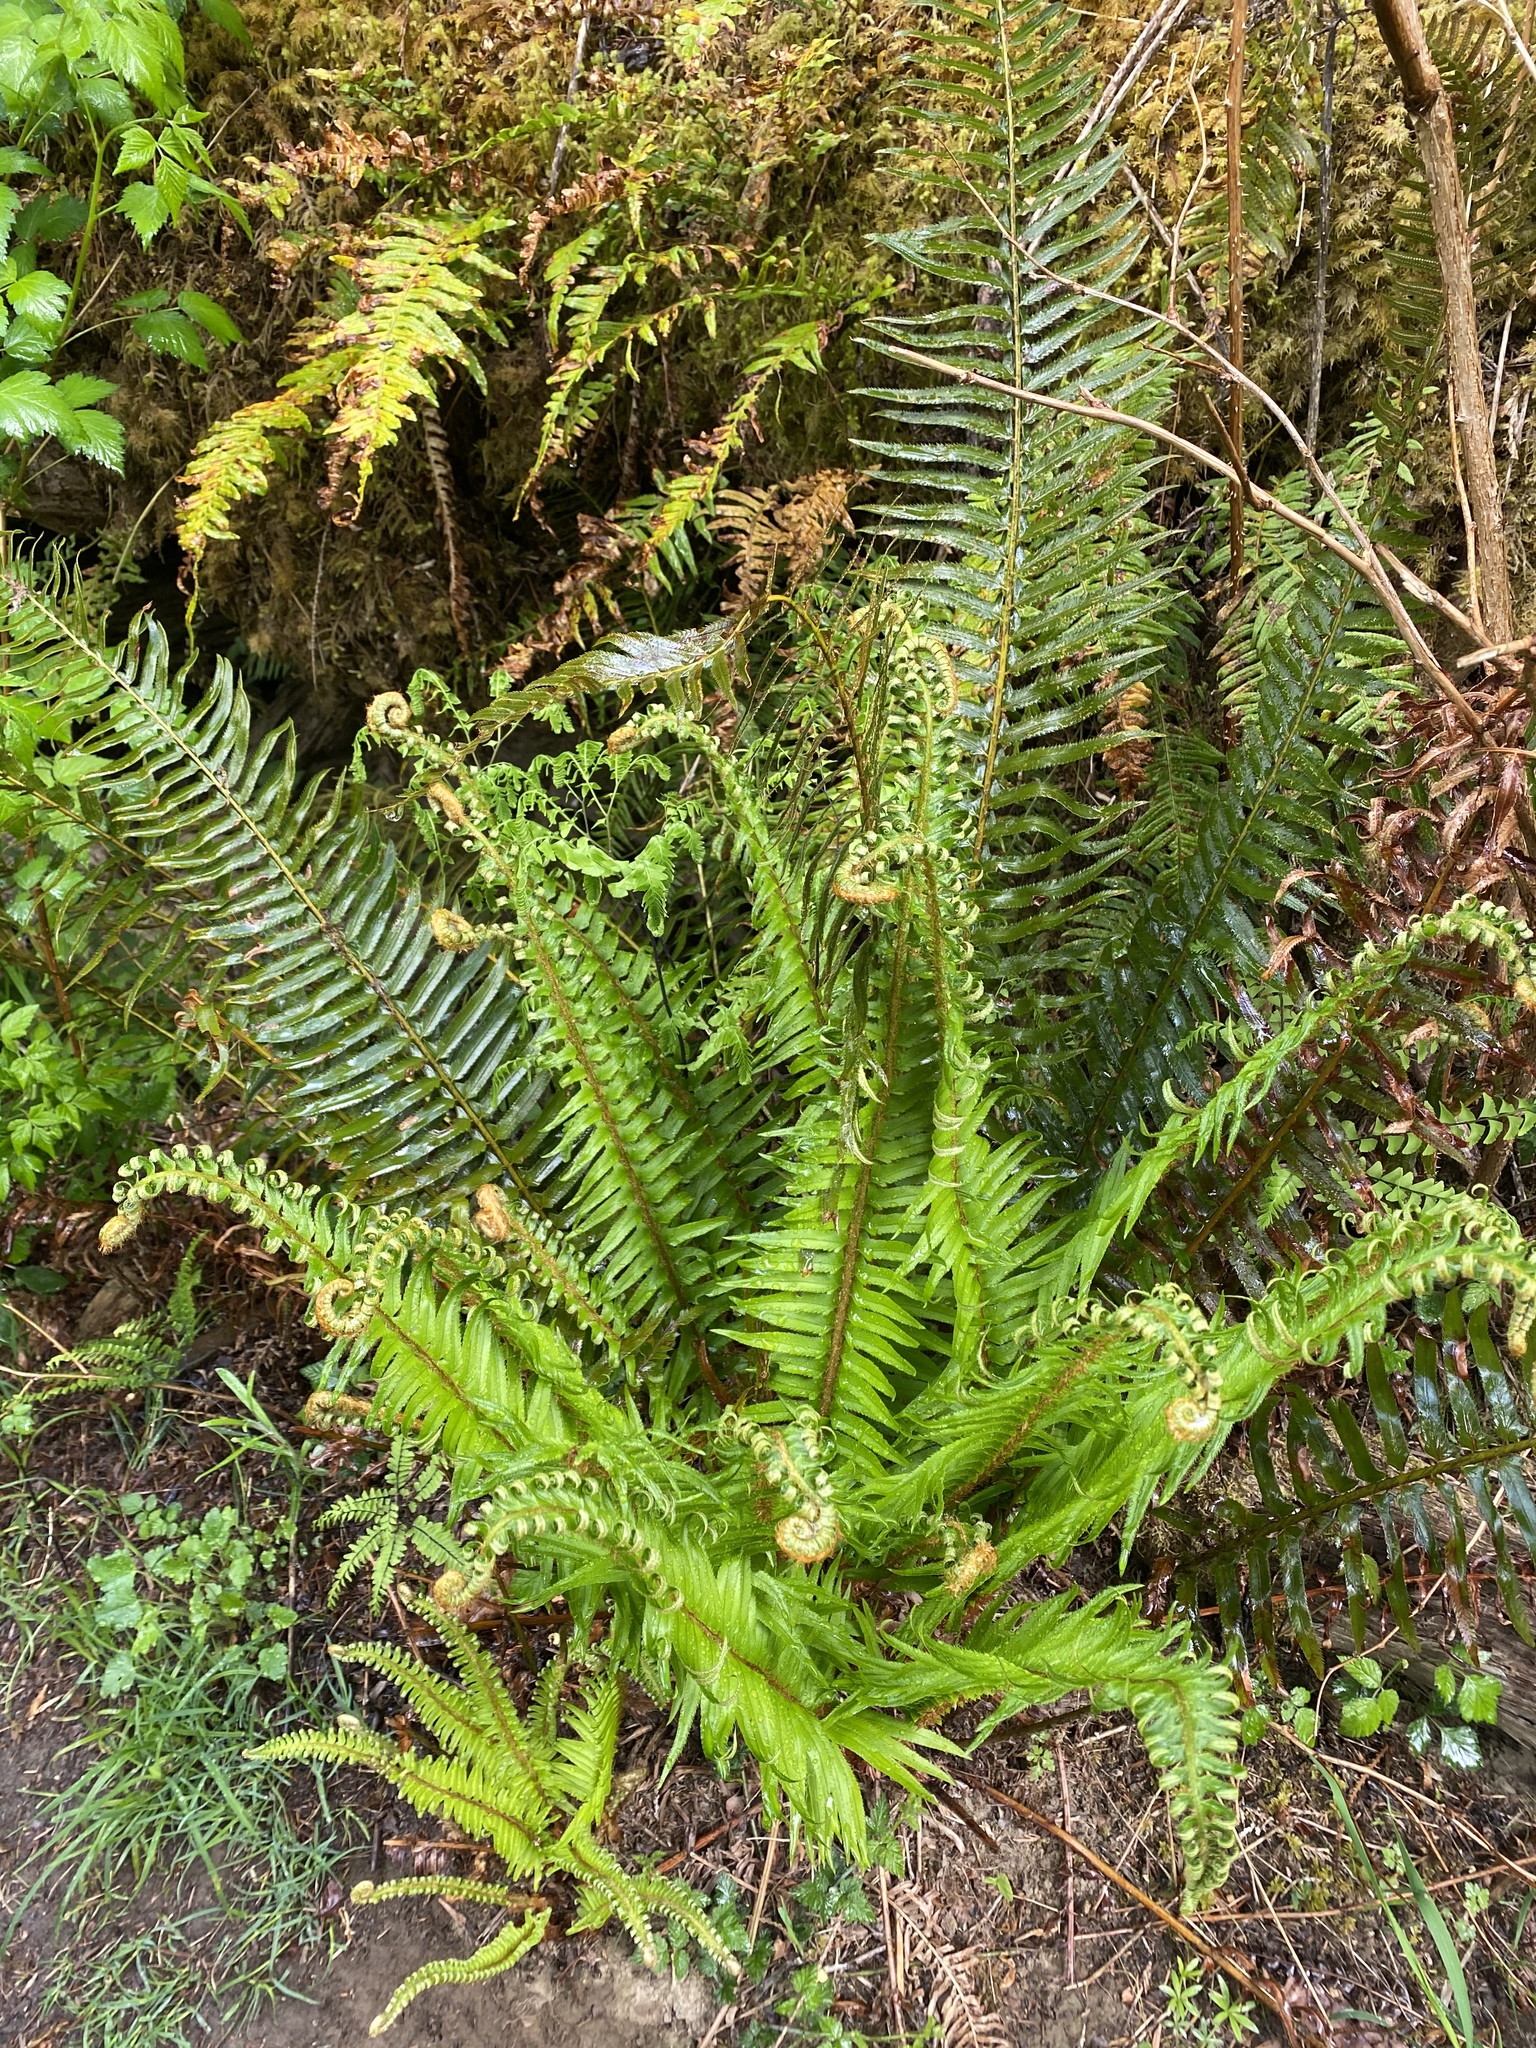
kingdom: Plantae
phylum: Tracheophyta
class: Polypodiopsida
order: Polypodiales
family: Dryopteridaceae
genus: Polystichum
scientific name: Polystichum munitum
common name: Western sword-fern
